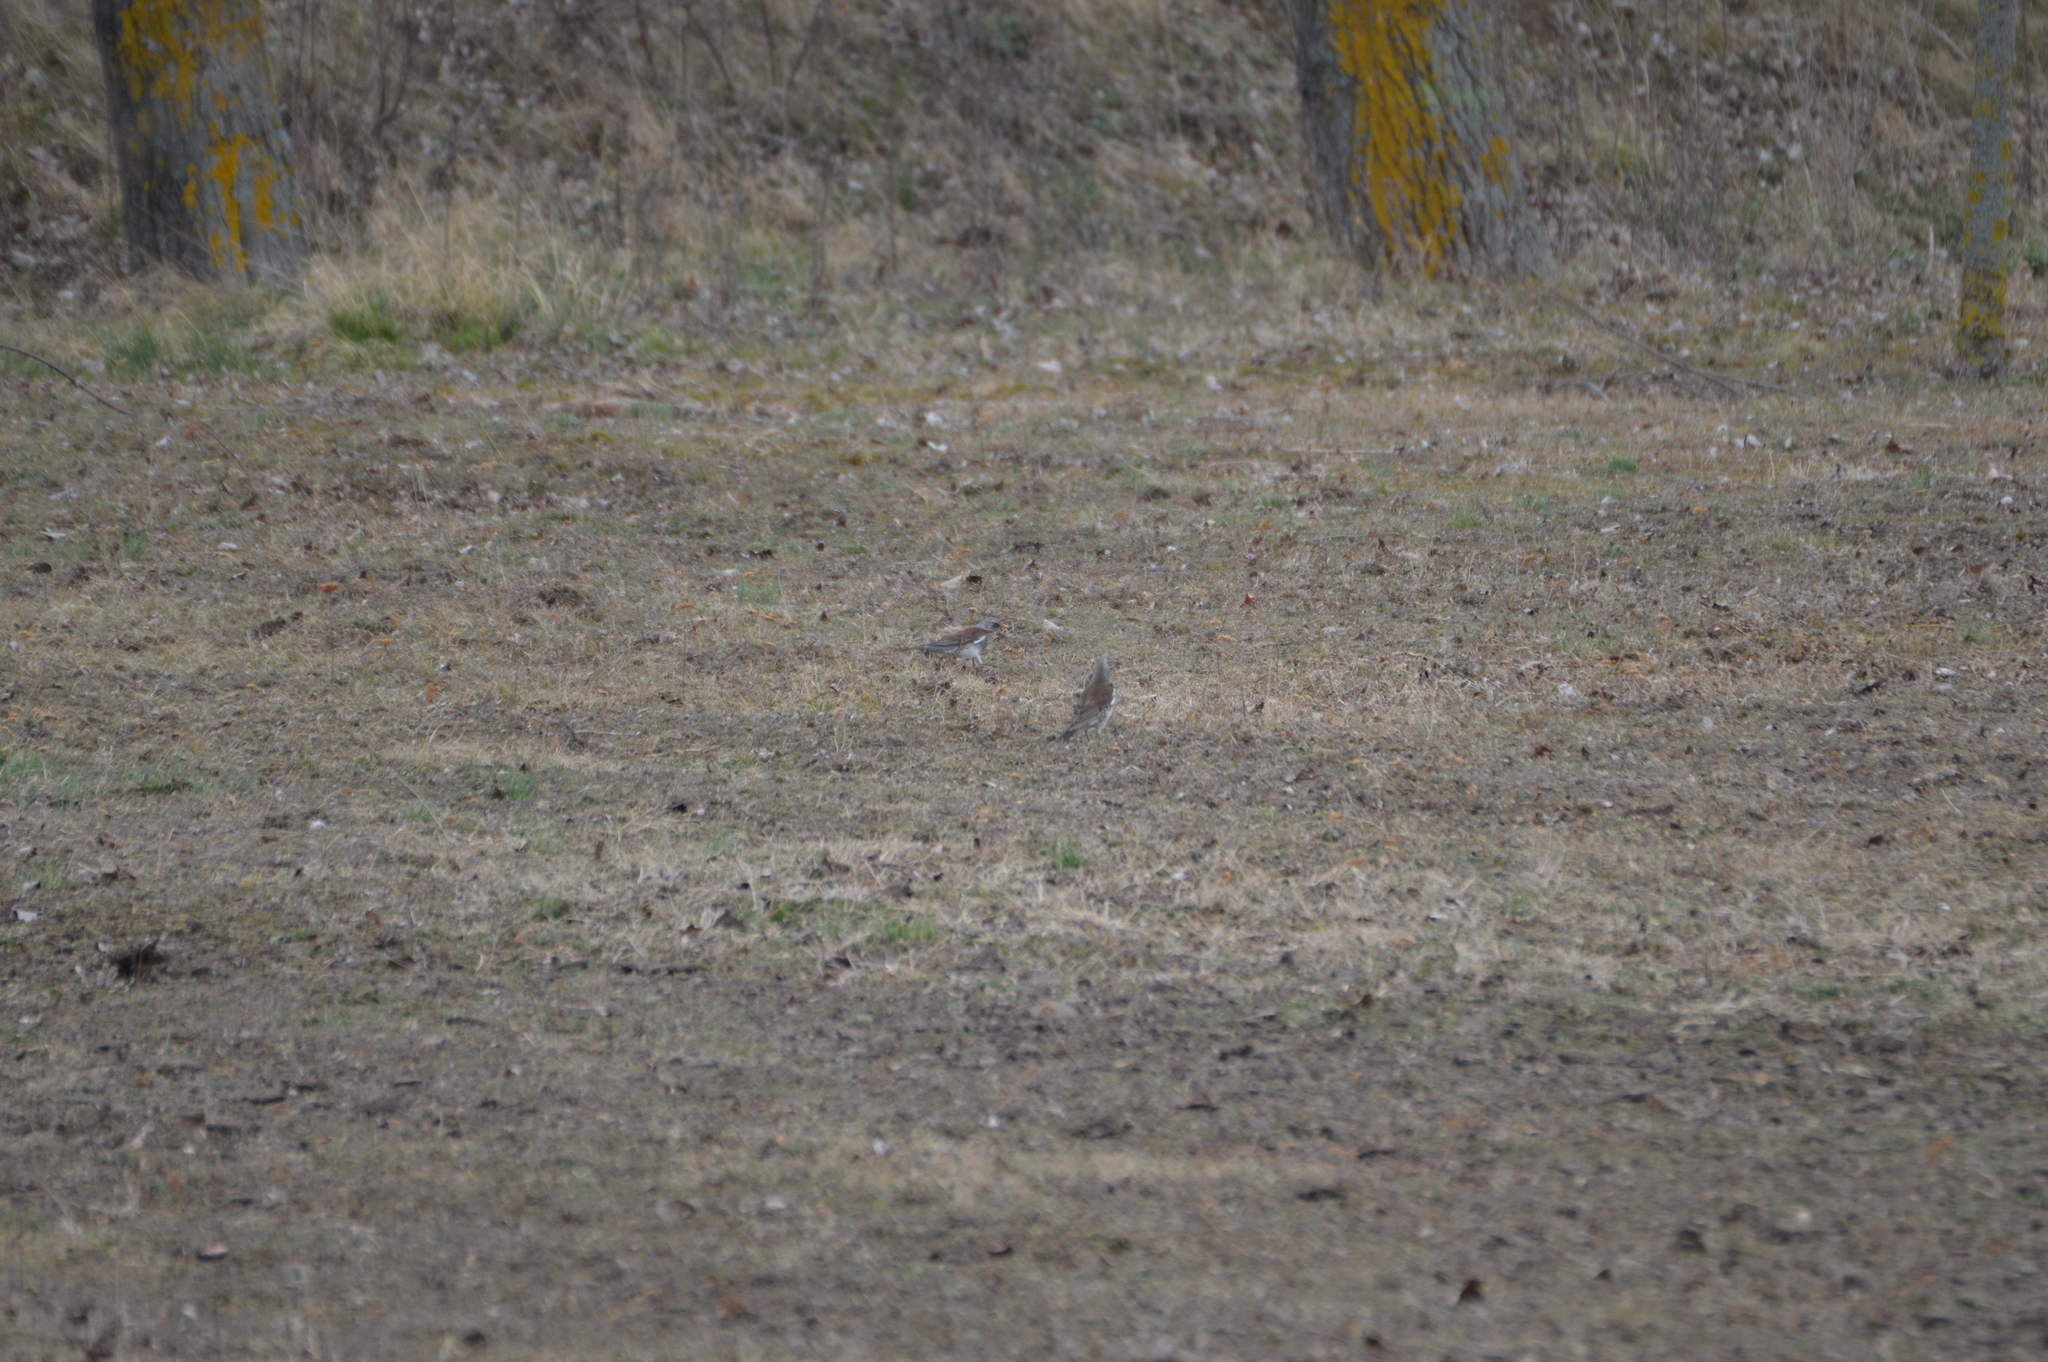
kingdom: Animalia
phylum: Chordata
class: Aves
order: Passeriformes
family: Turdidae
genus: Turdus
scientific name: Turdus pilaris
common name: Fieldfare
